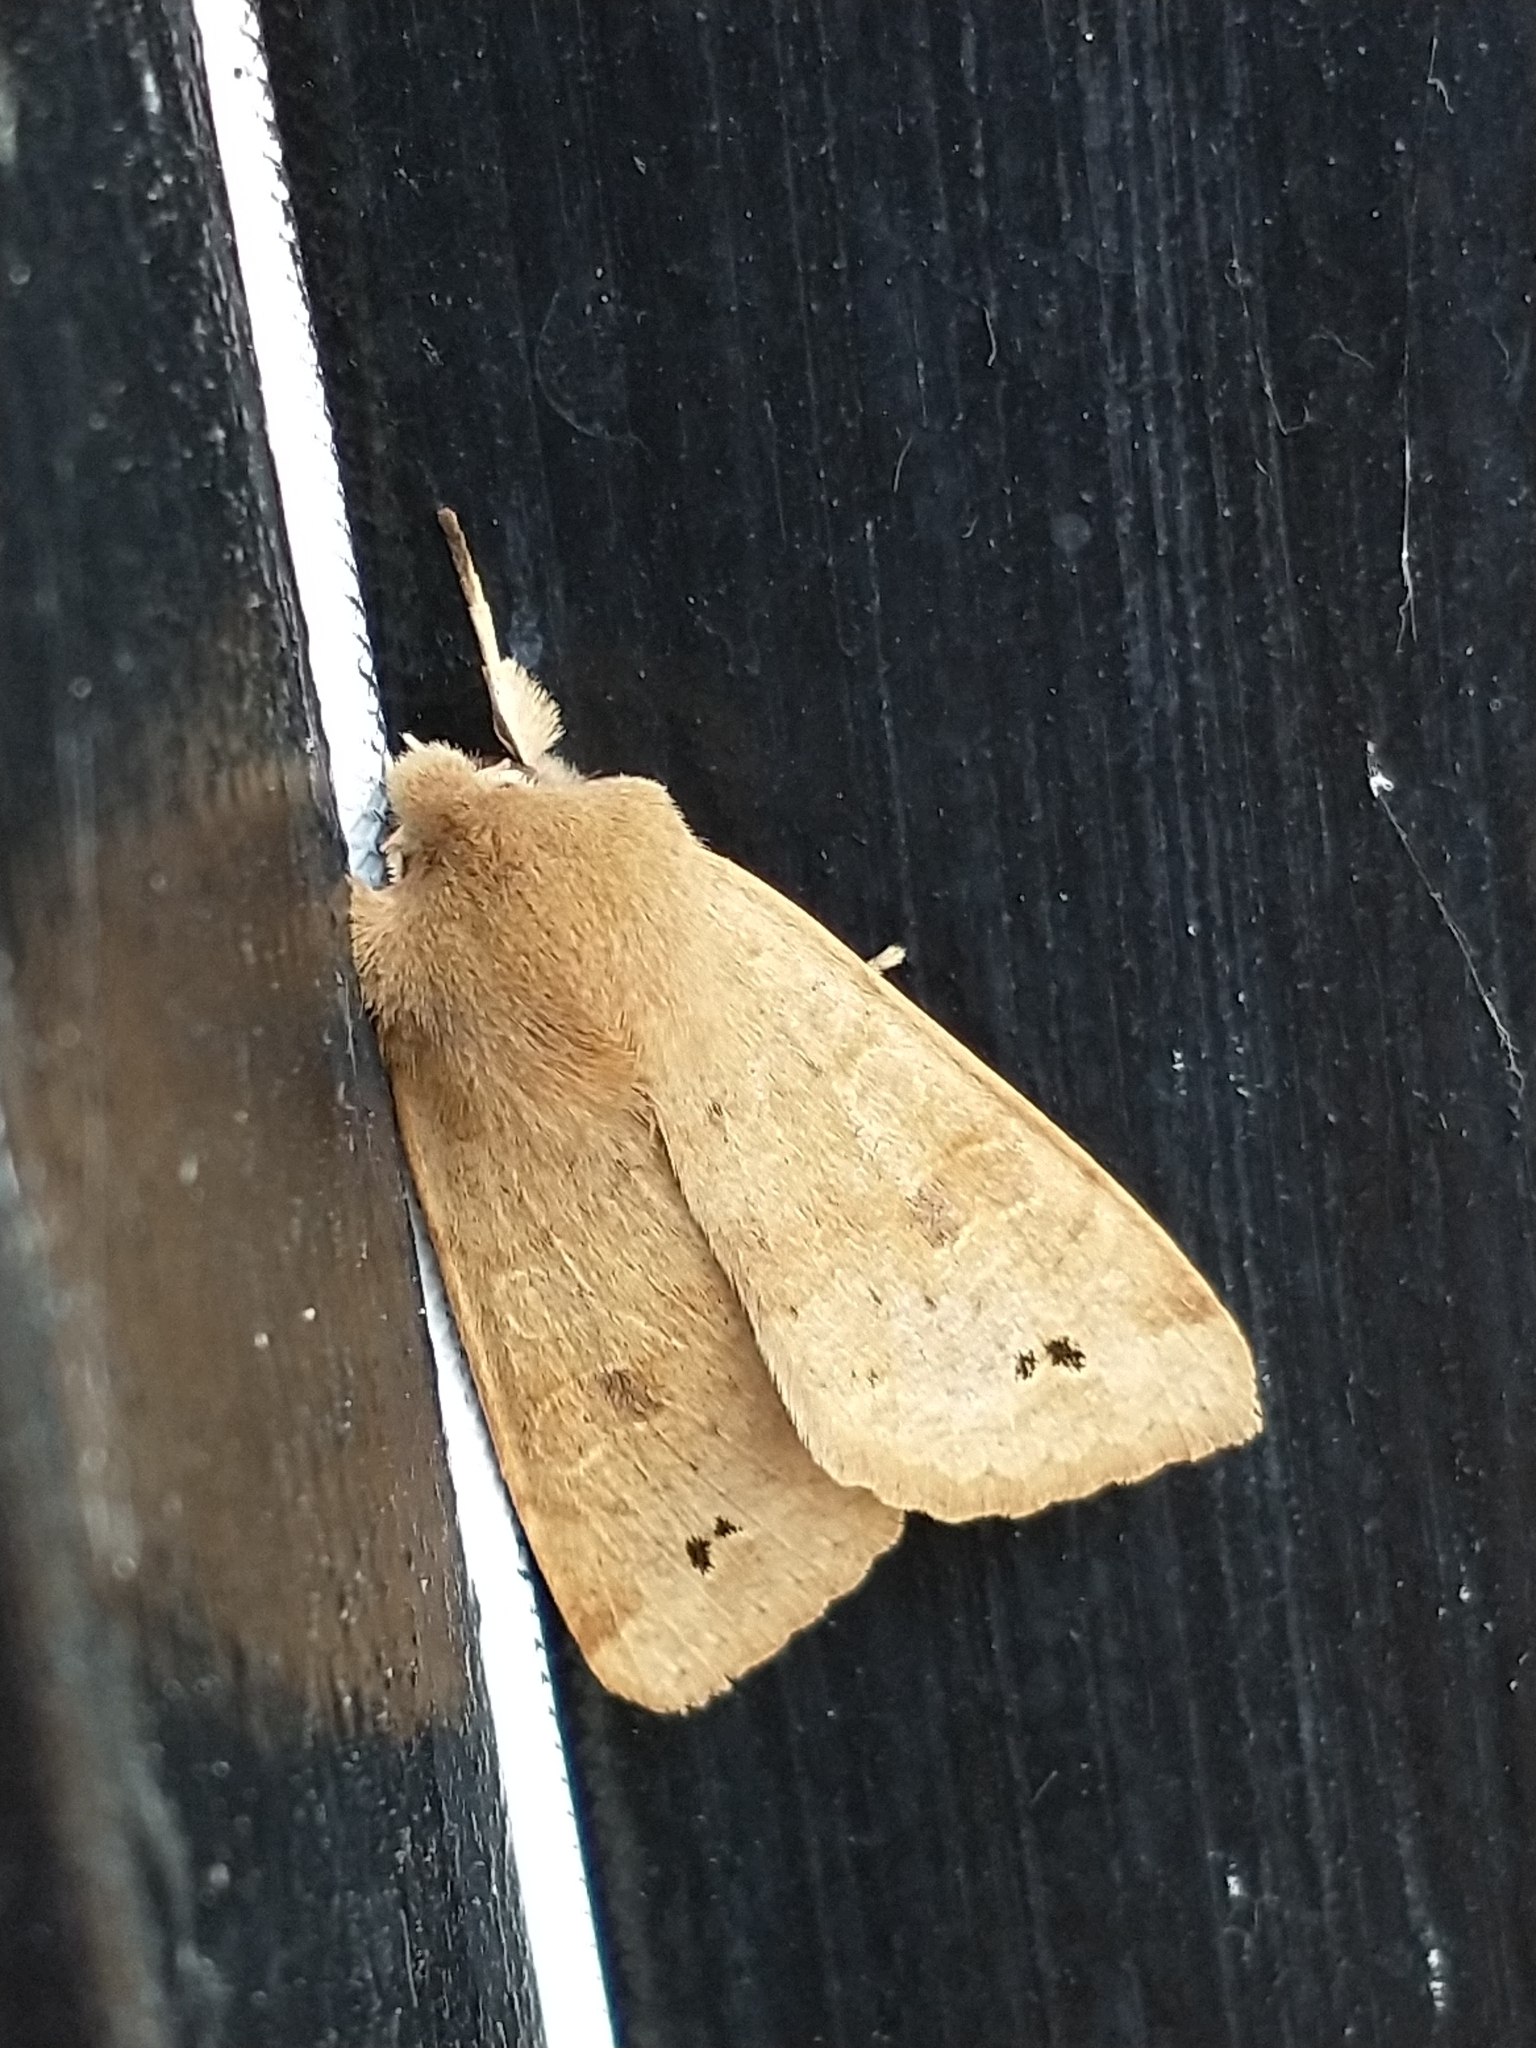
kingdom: Animalia
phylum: Arthropoda
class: Insecta
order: Lepidoptera
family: Noctuidae
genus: Anorthoa
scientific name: Anorthoa munda
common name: Twin-spotted quaker
